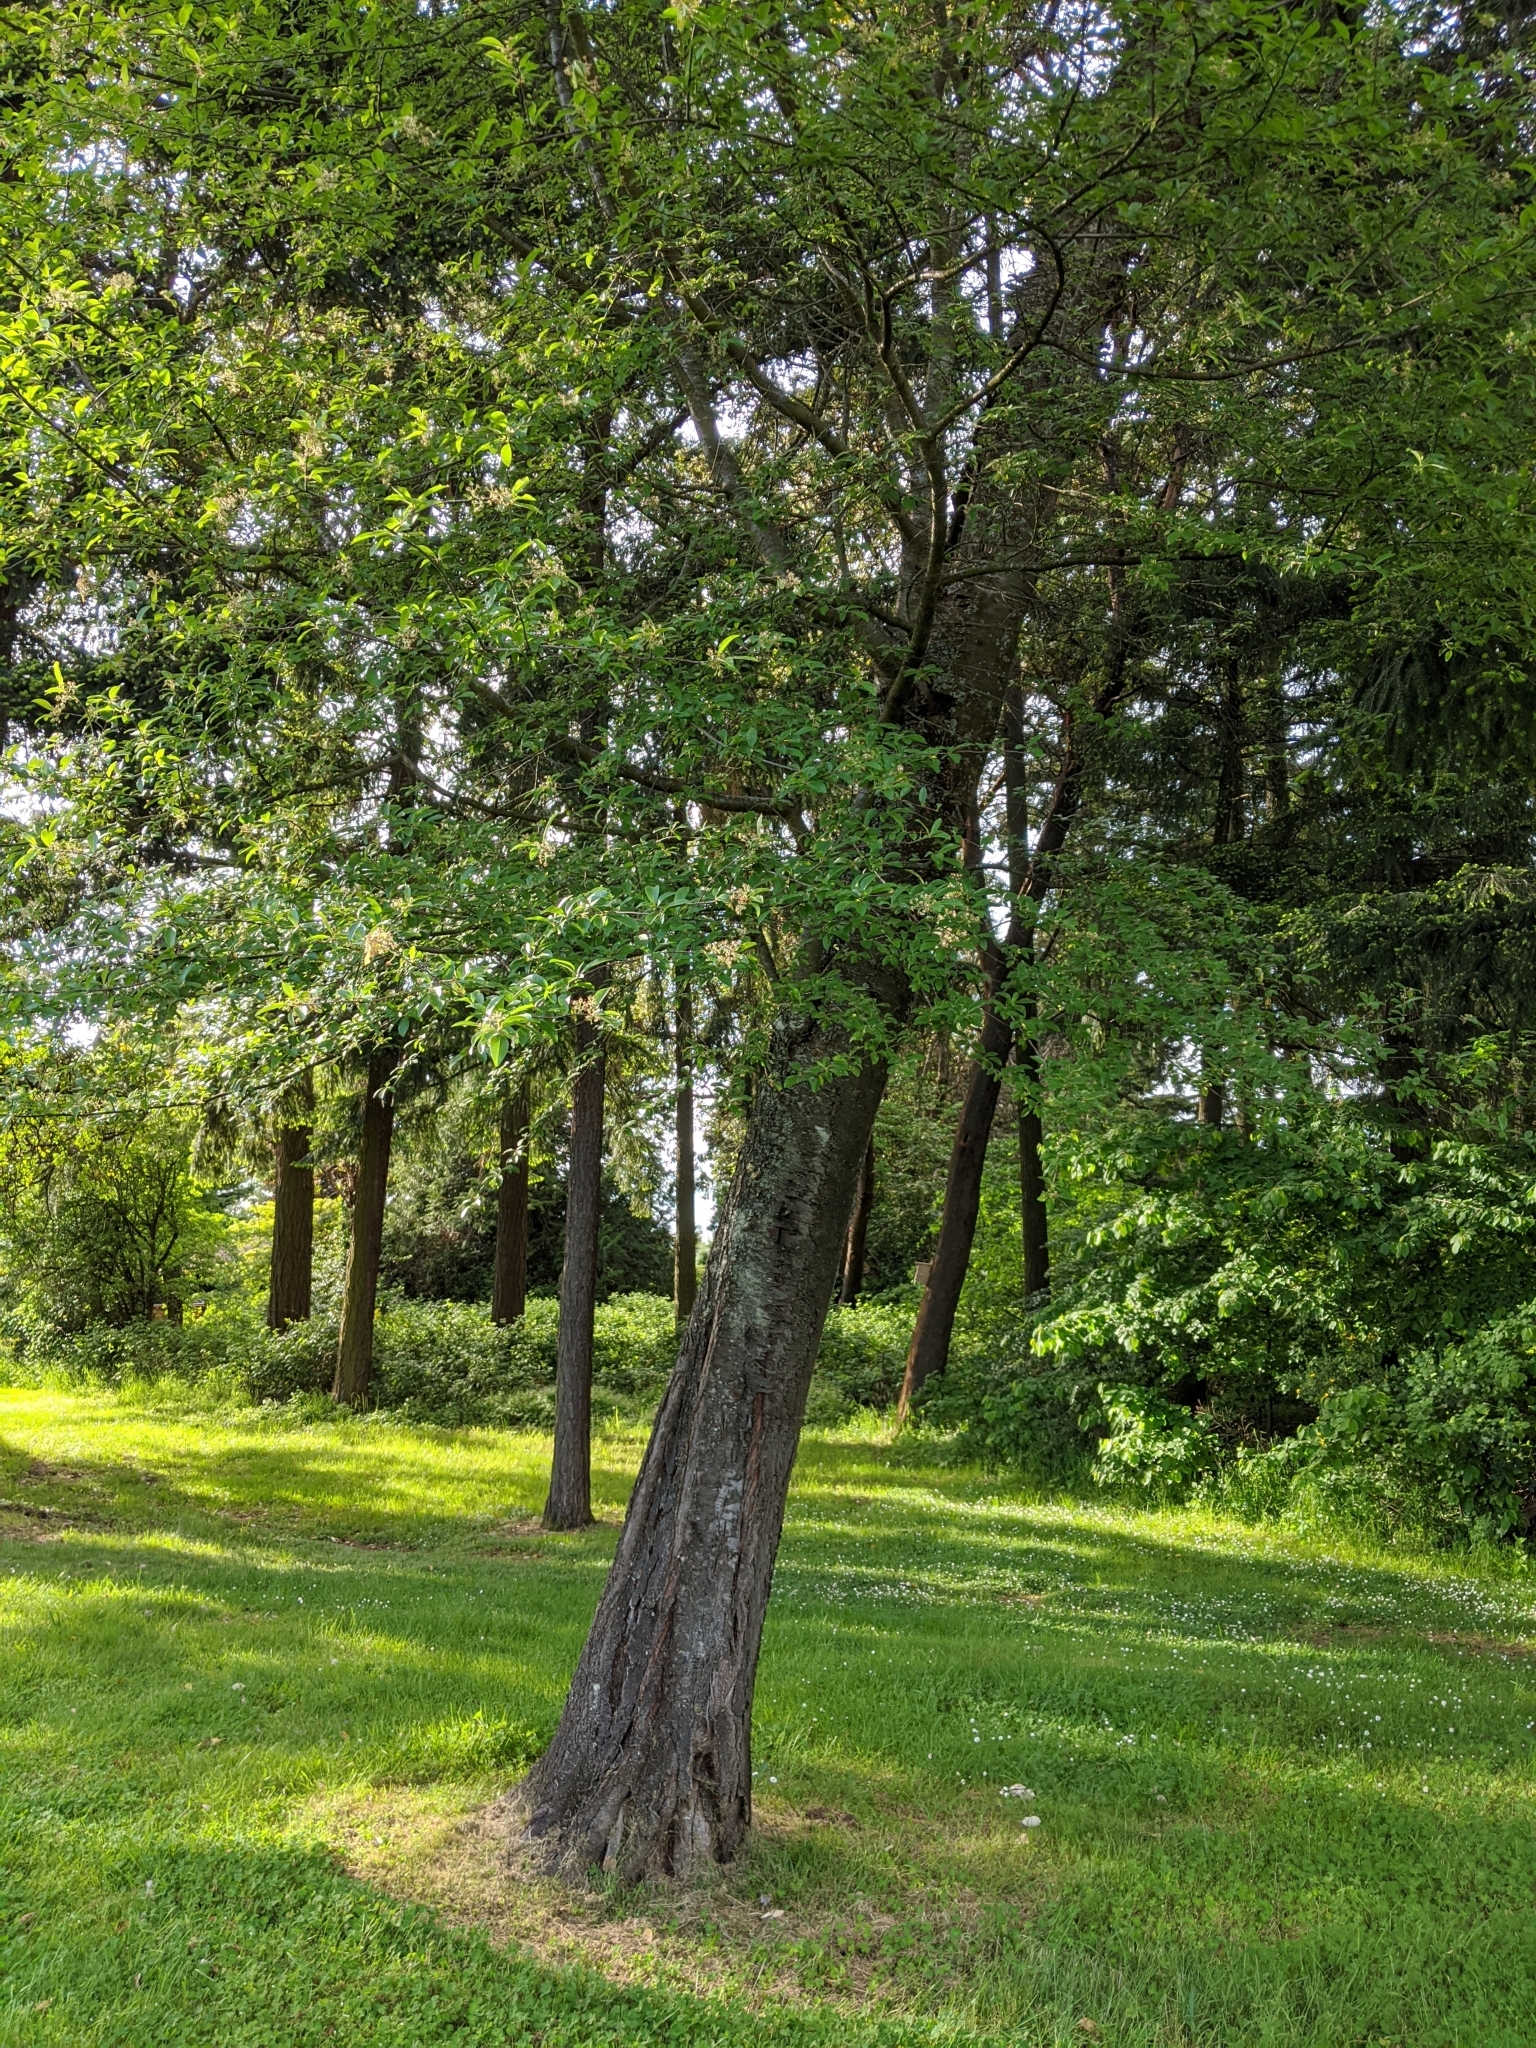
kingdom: Plantae
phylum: Tracheophyta
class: Magnoliopsida
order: Rosales
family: Rosaceae
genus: Prunus
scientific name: Prunus emarginata
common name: Bitter cherry
